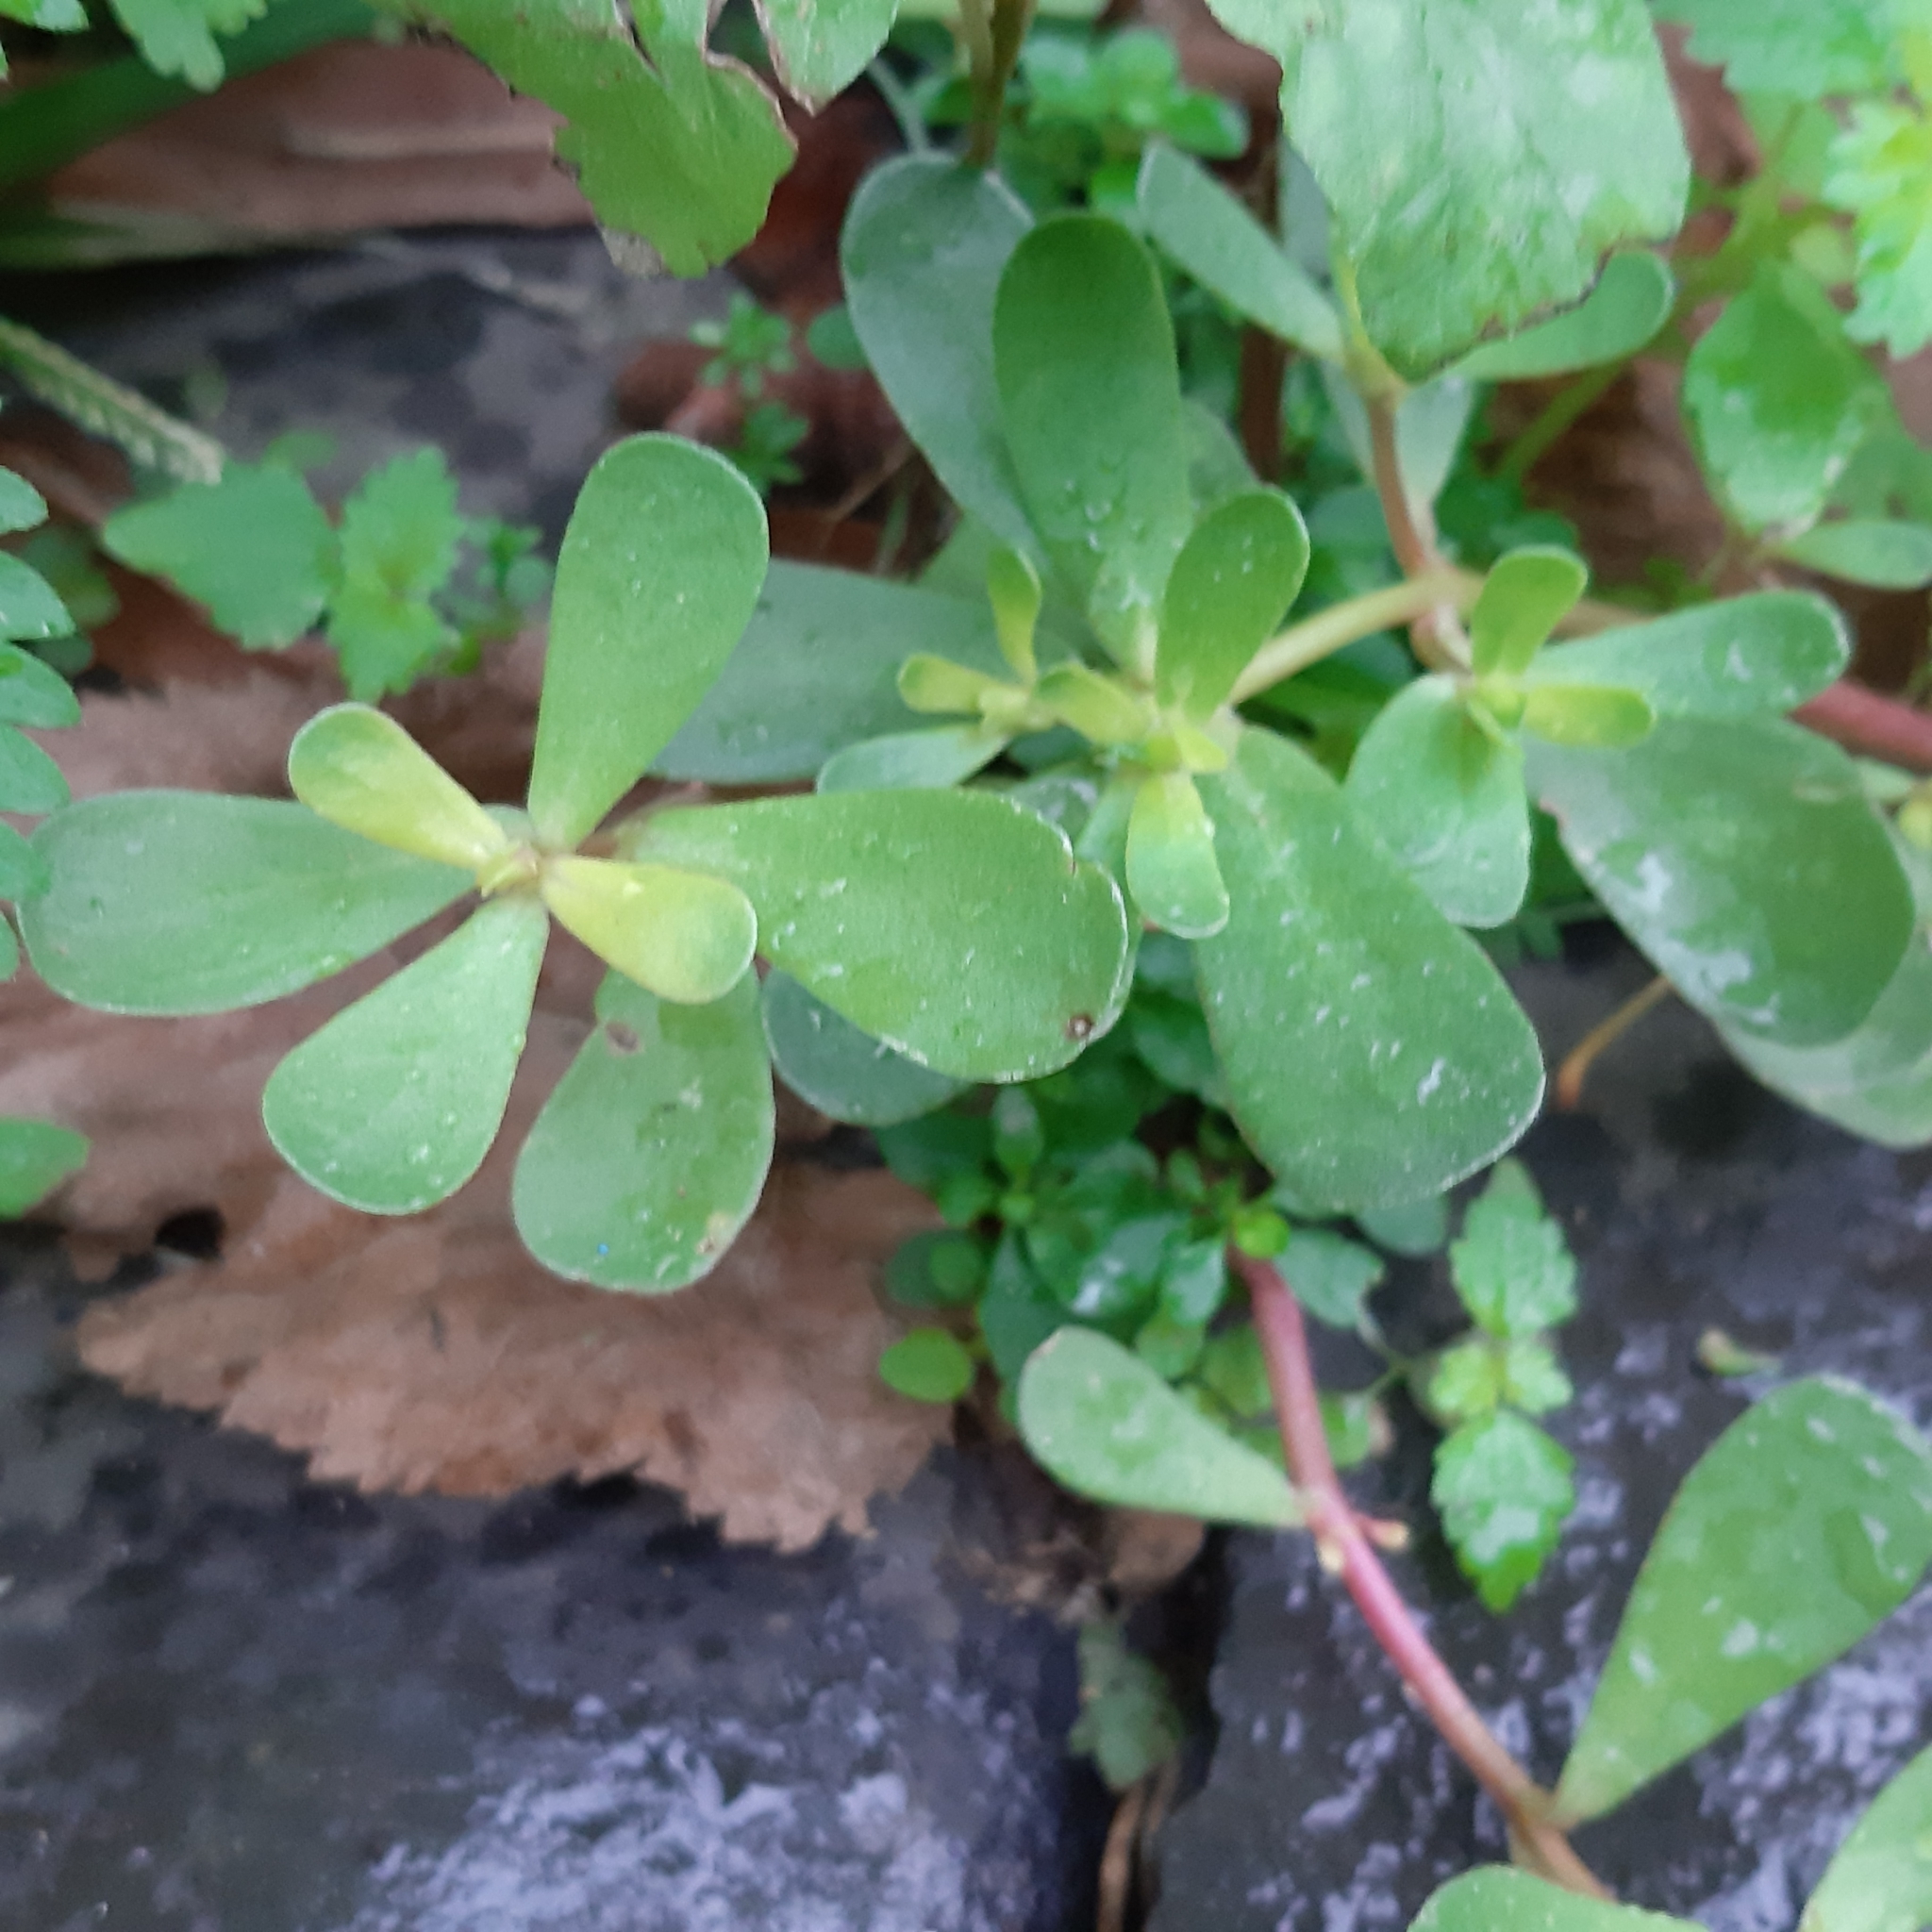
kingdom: Plantae
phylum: Tracheophyta
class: Magnoliopsida
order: Caryophyllales
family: Portulacaceae
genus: Portulaca
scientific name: Portulaca oleracea
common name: Common purslane
